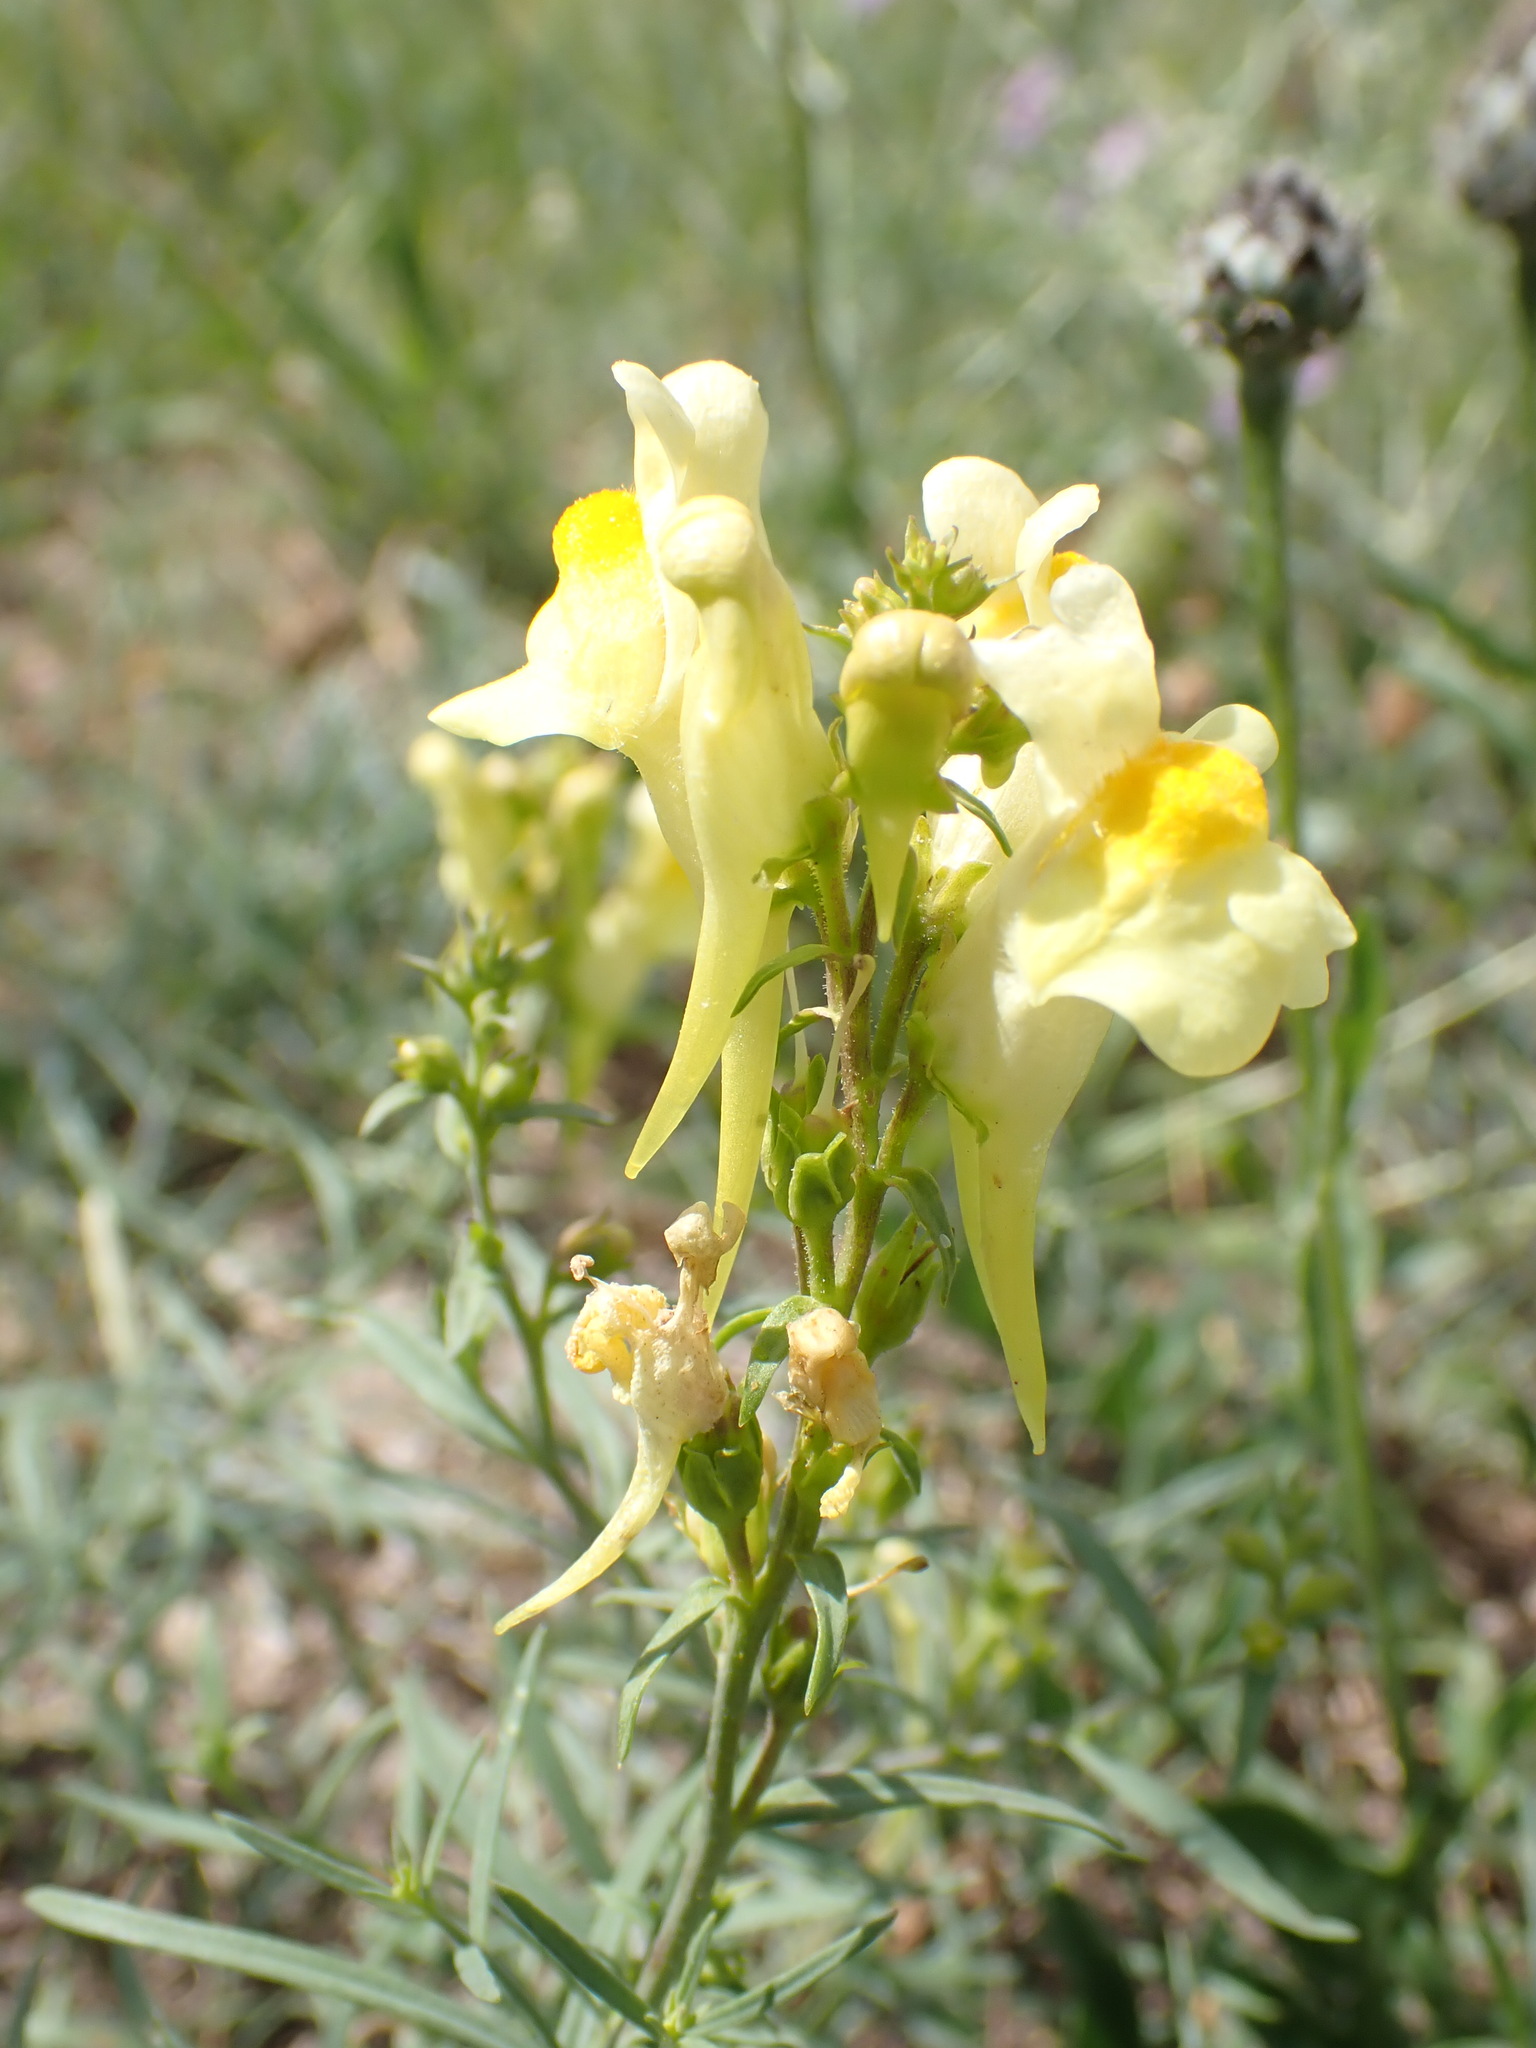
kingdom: Plantae
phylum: Tracheophyta
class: Magnoliopsida
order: Lamiales
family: Plantaginaceae
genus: Linaria
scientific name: Linaria vulgaris
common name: Butter and eggs
